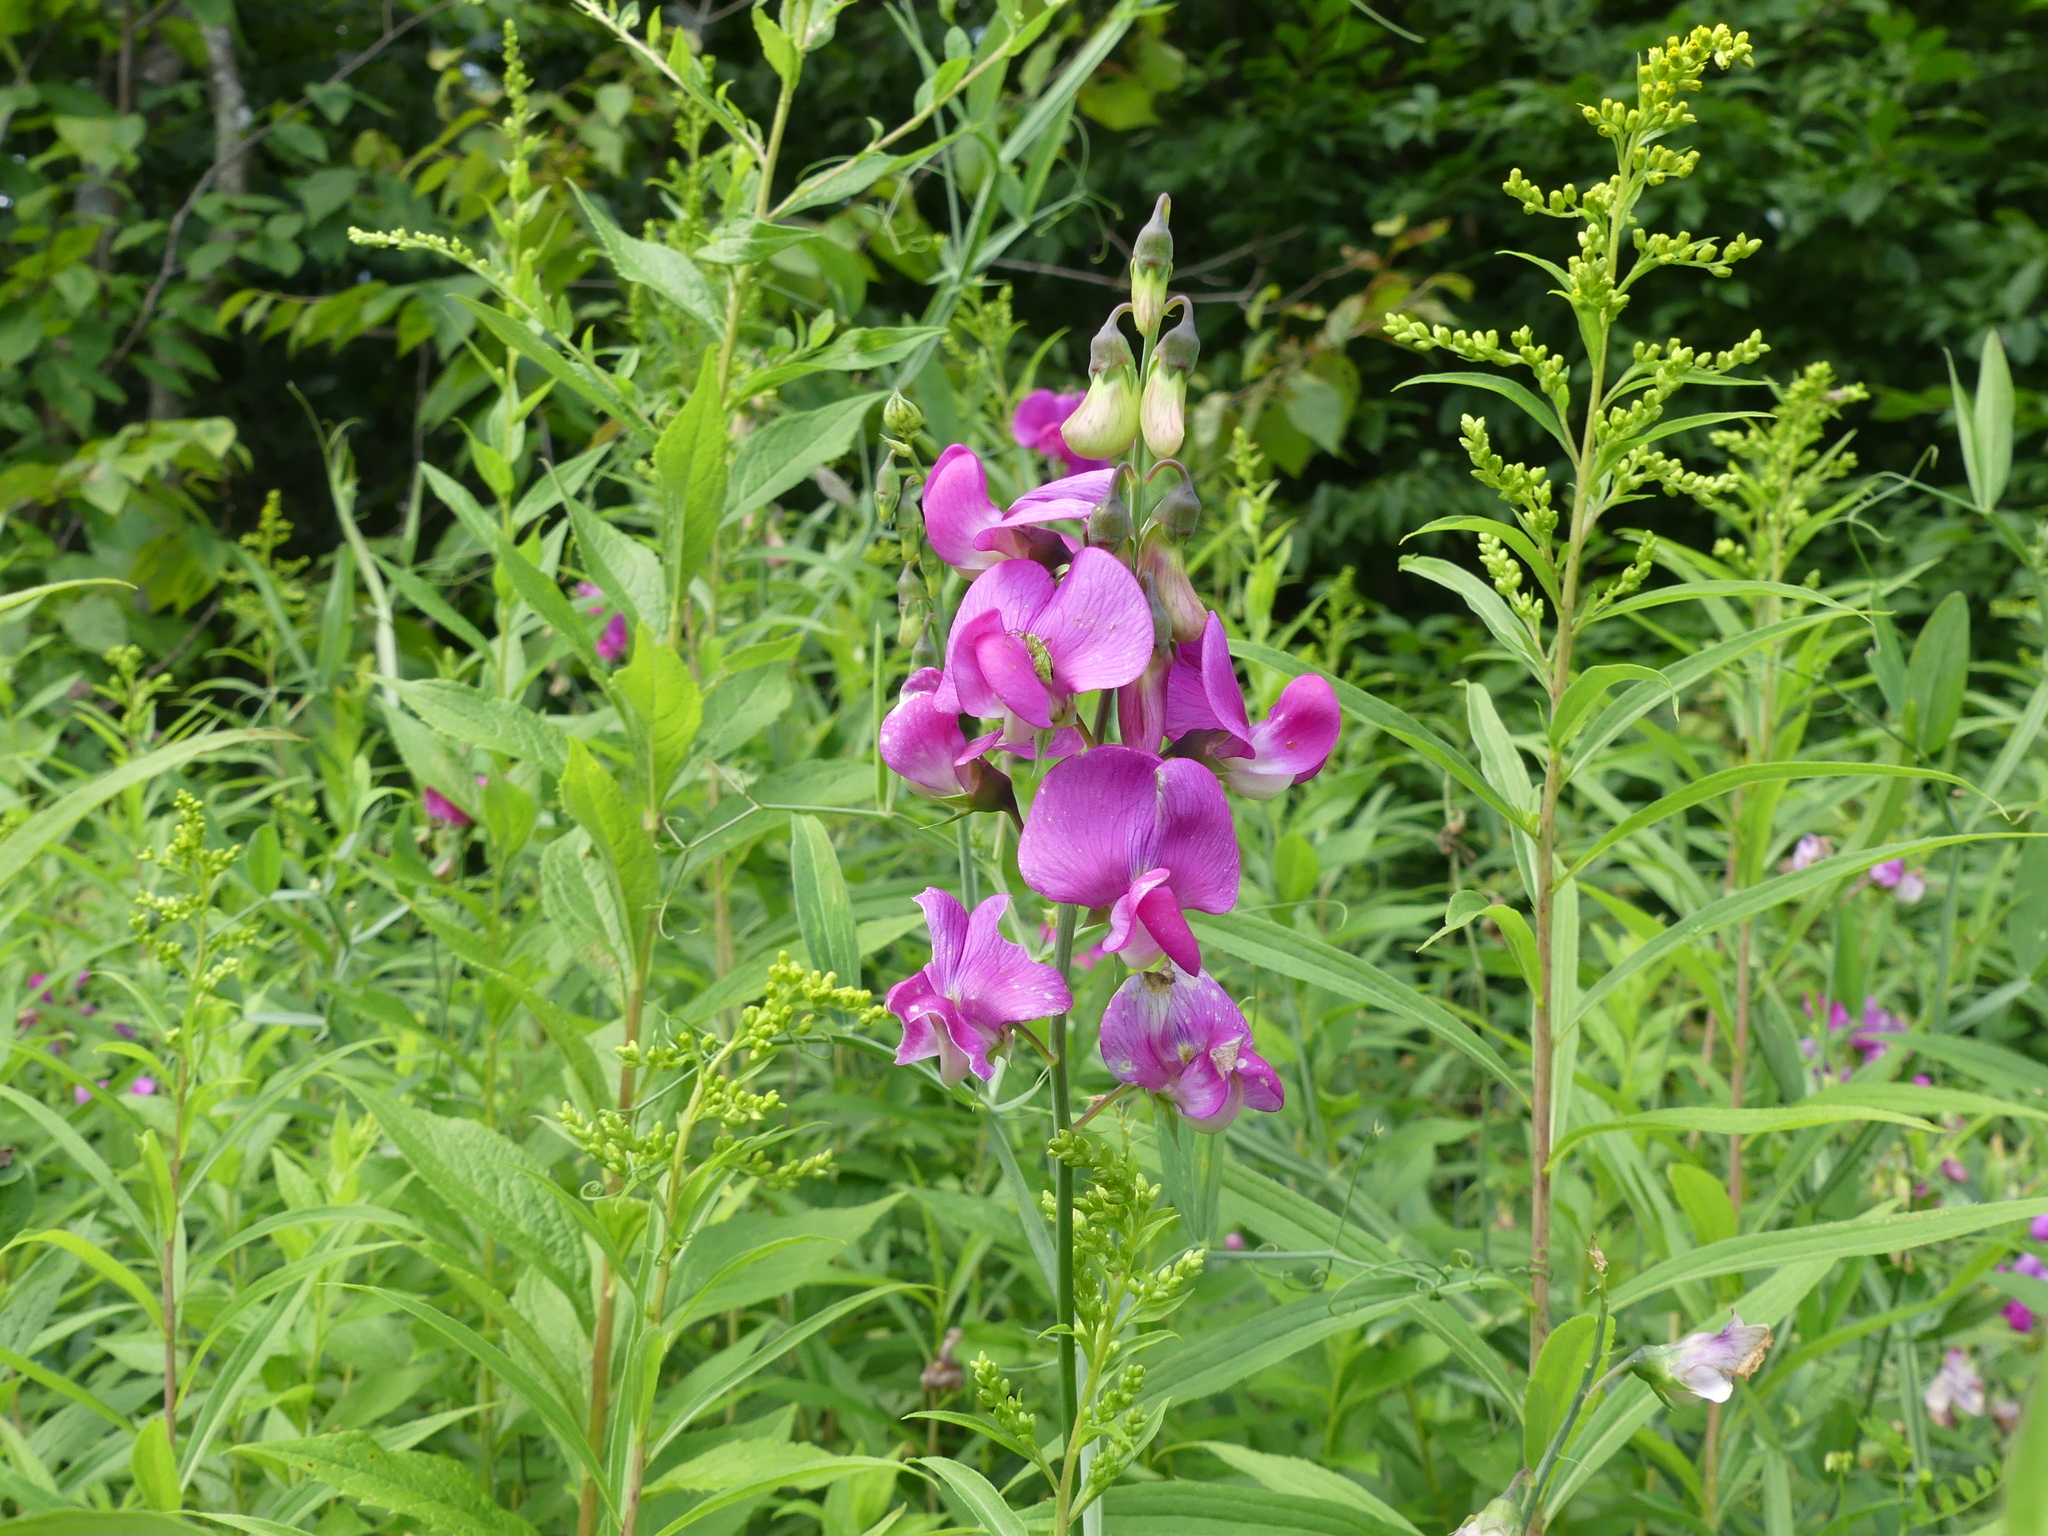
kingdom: Plantae
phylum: Tracheophyta
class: Magnoliopsida
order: Fabales
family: Fabaceae
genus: Lathyrus
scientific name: Lathyrus latifolius
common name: Perennial pea
